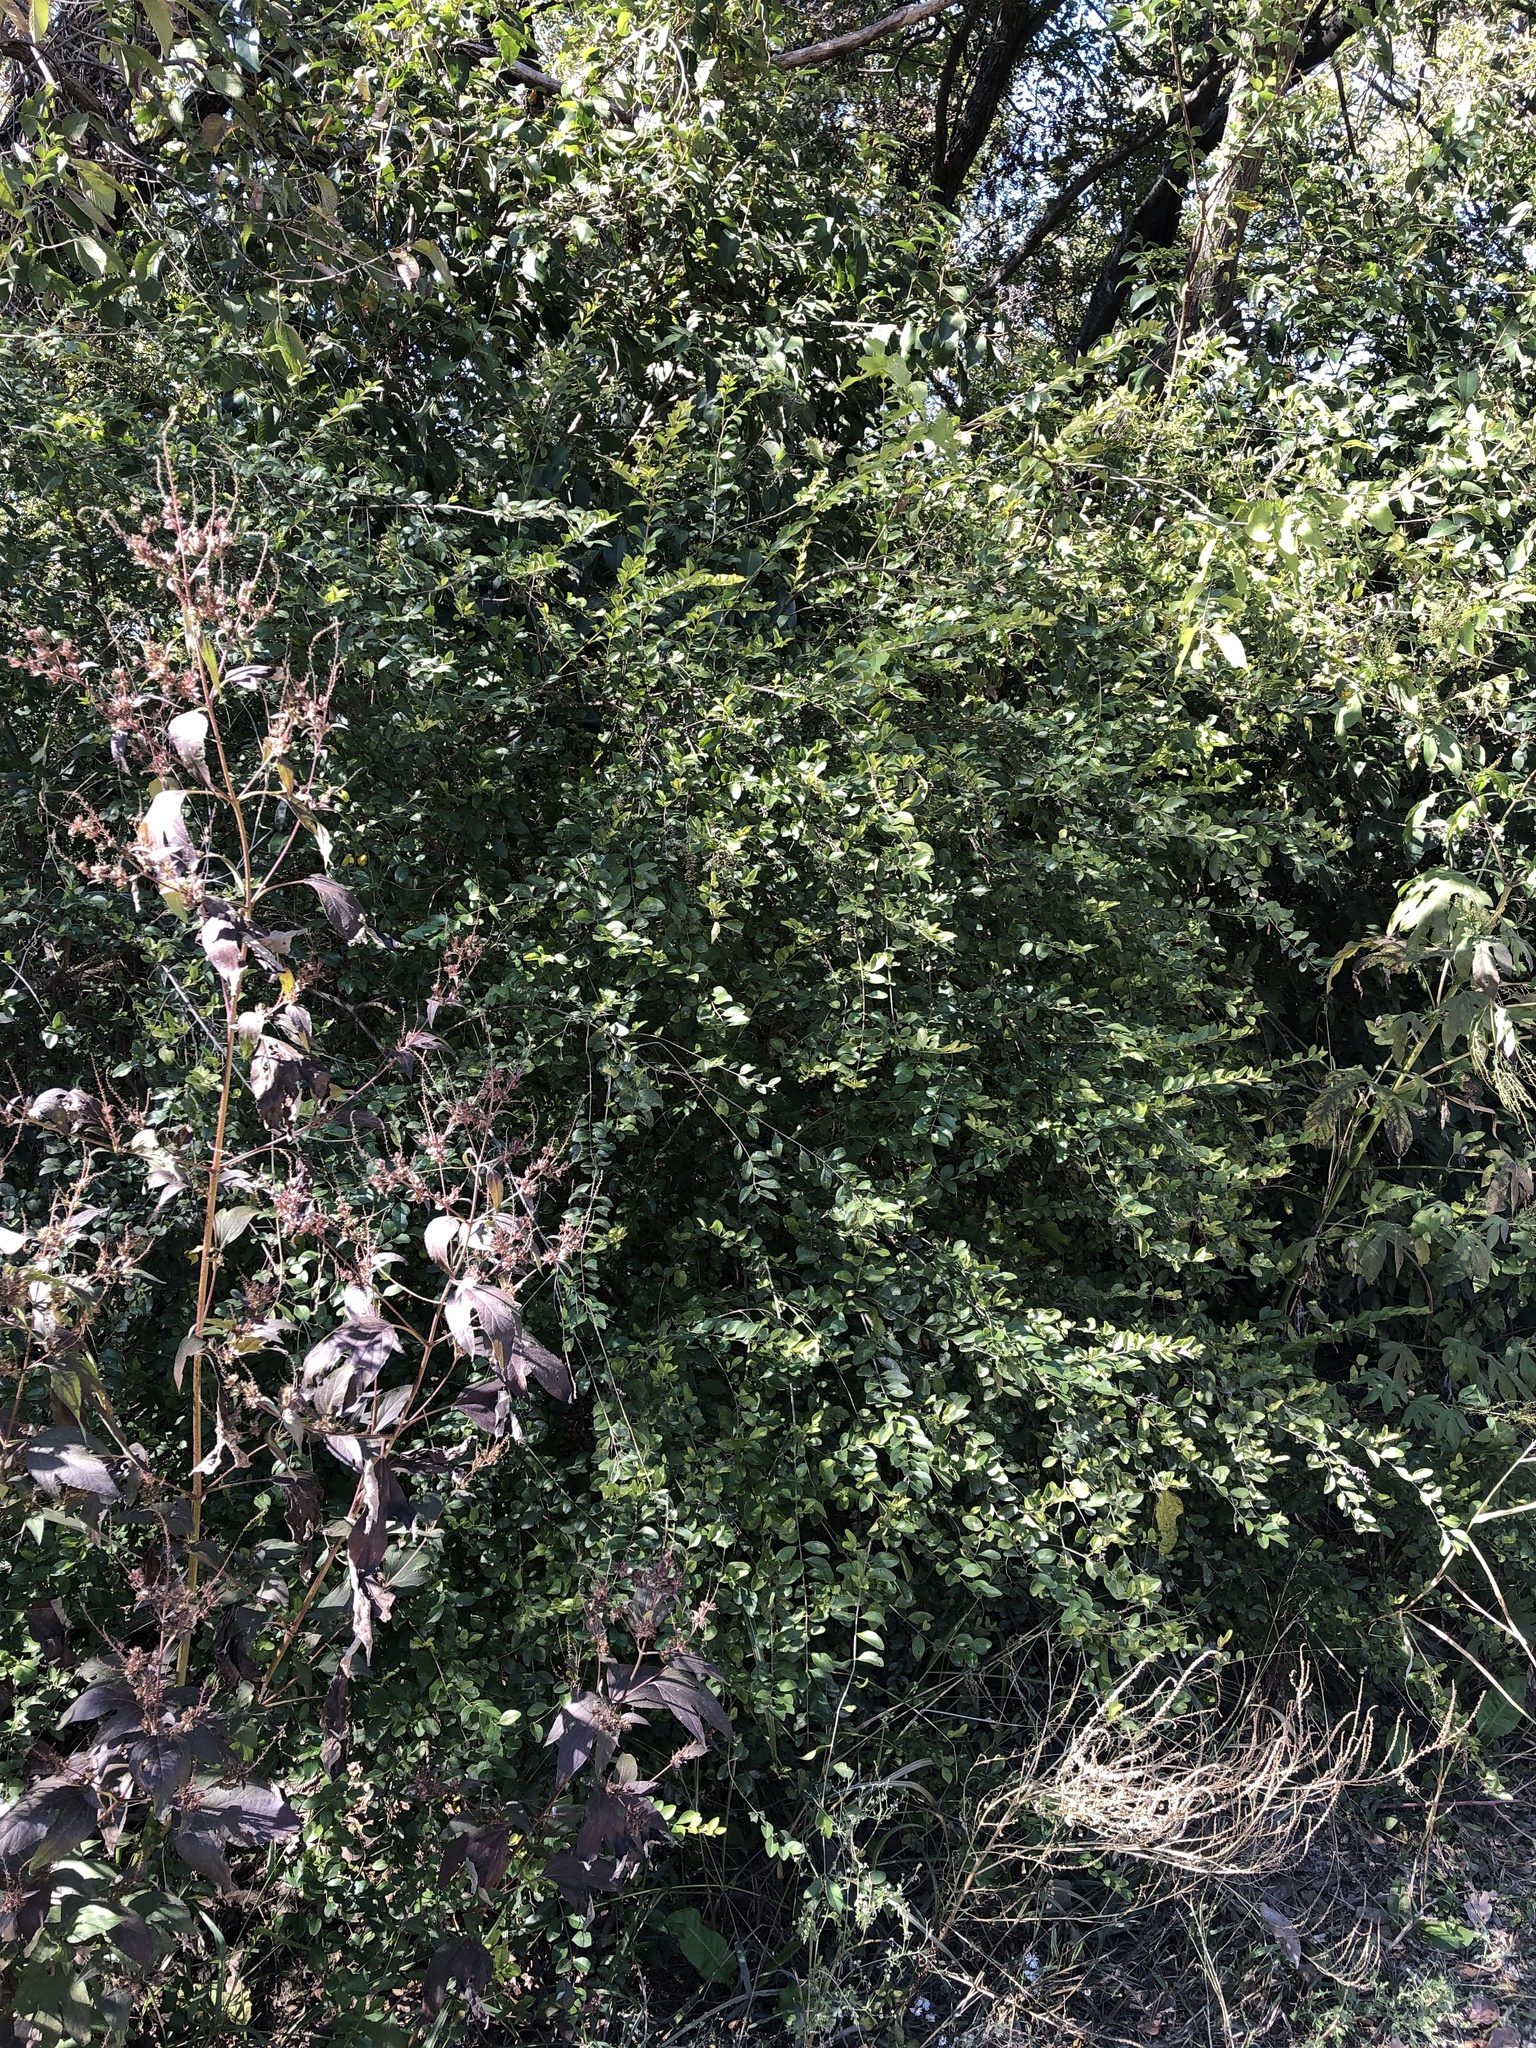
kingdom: Plantae
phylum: Tracheophyta
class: Magnoliopsida
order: Lamiales
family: Oleaceae
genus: Ligustrum
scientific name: Ligustrum sinense
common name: Chinese privet
